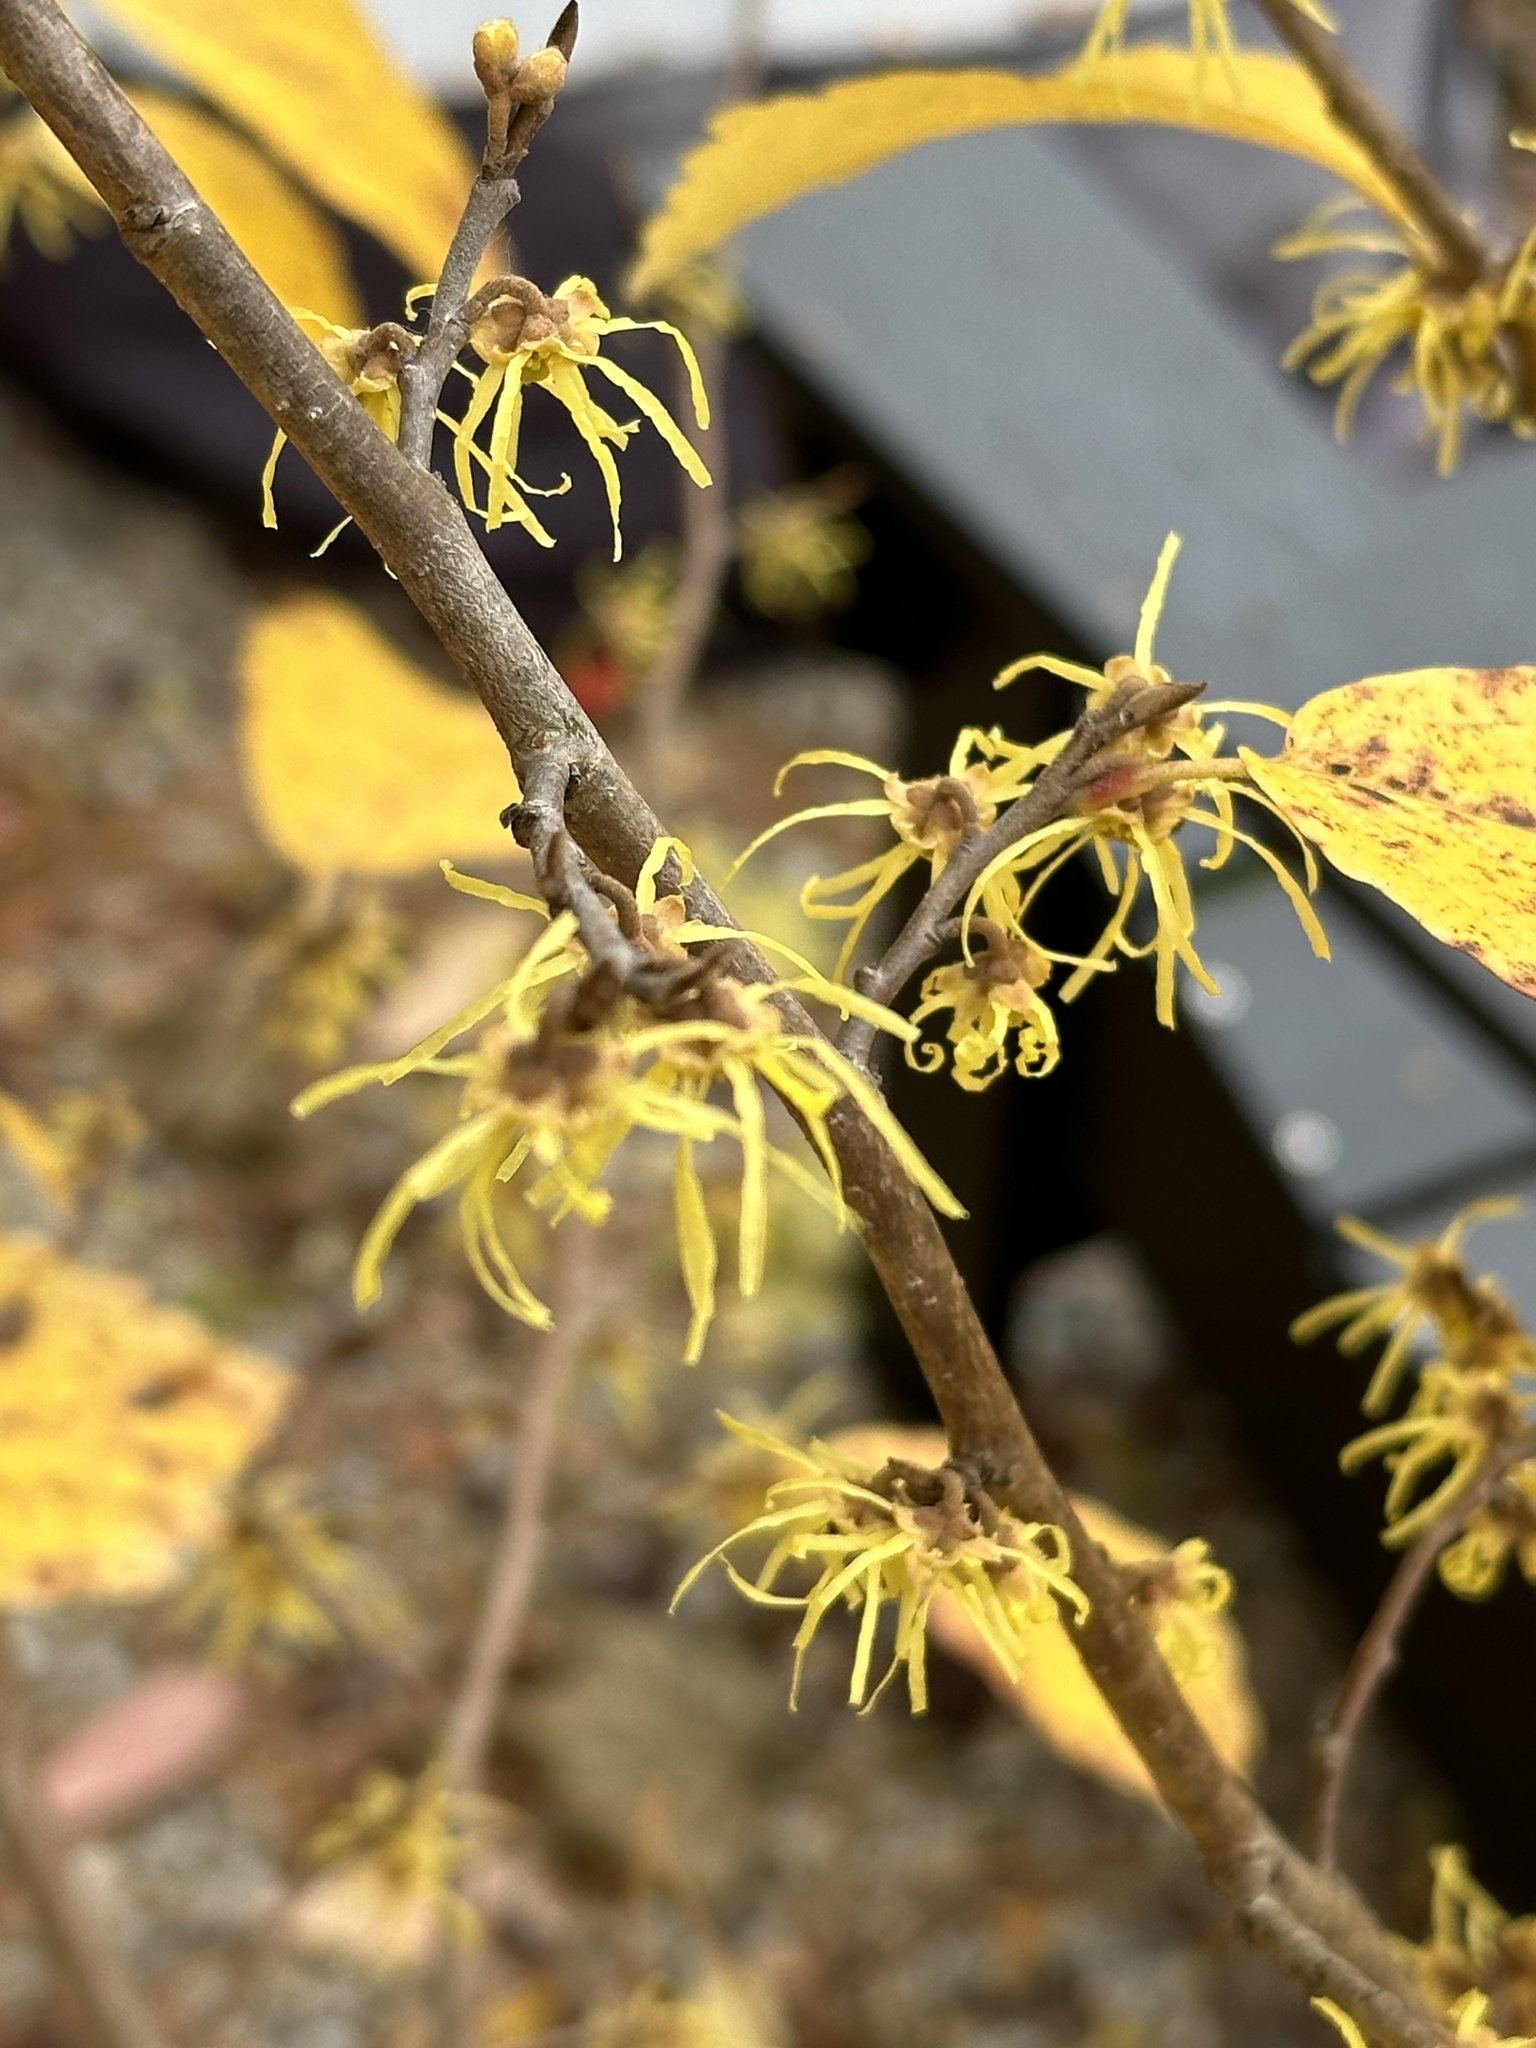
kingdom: Plantae
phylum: Tracheophyta
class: Magnoliopsida
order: Saxifragales
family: Hamamelidaceae
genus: Hamamelis
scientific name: Hamamelis virginiana
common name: Witch-hazel
